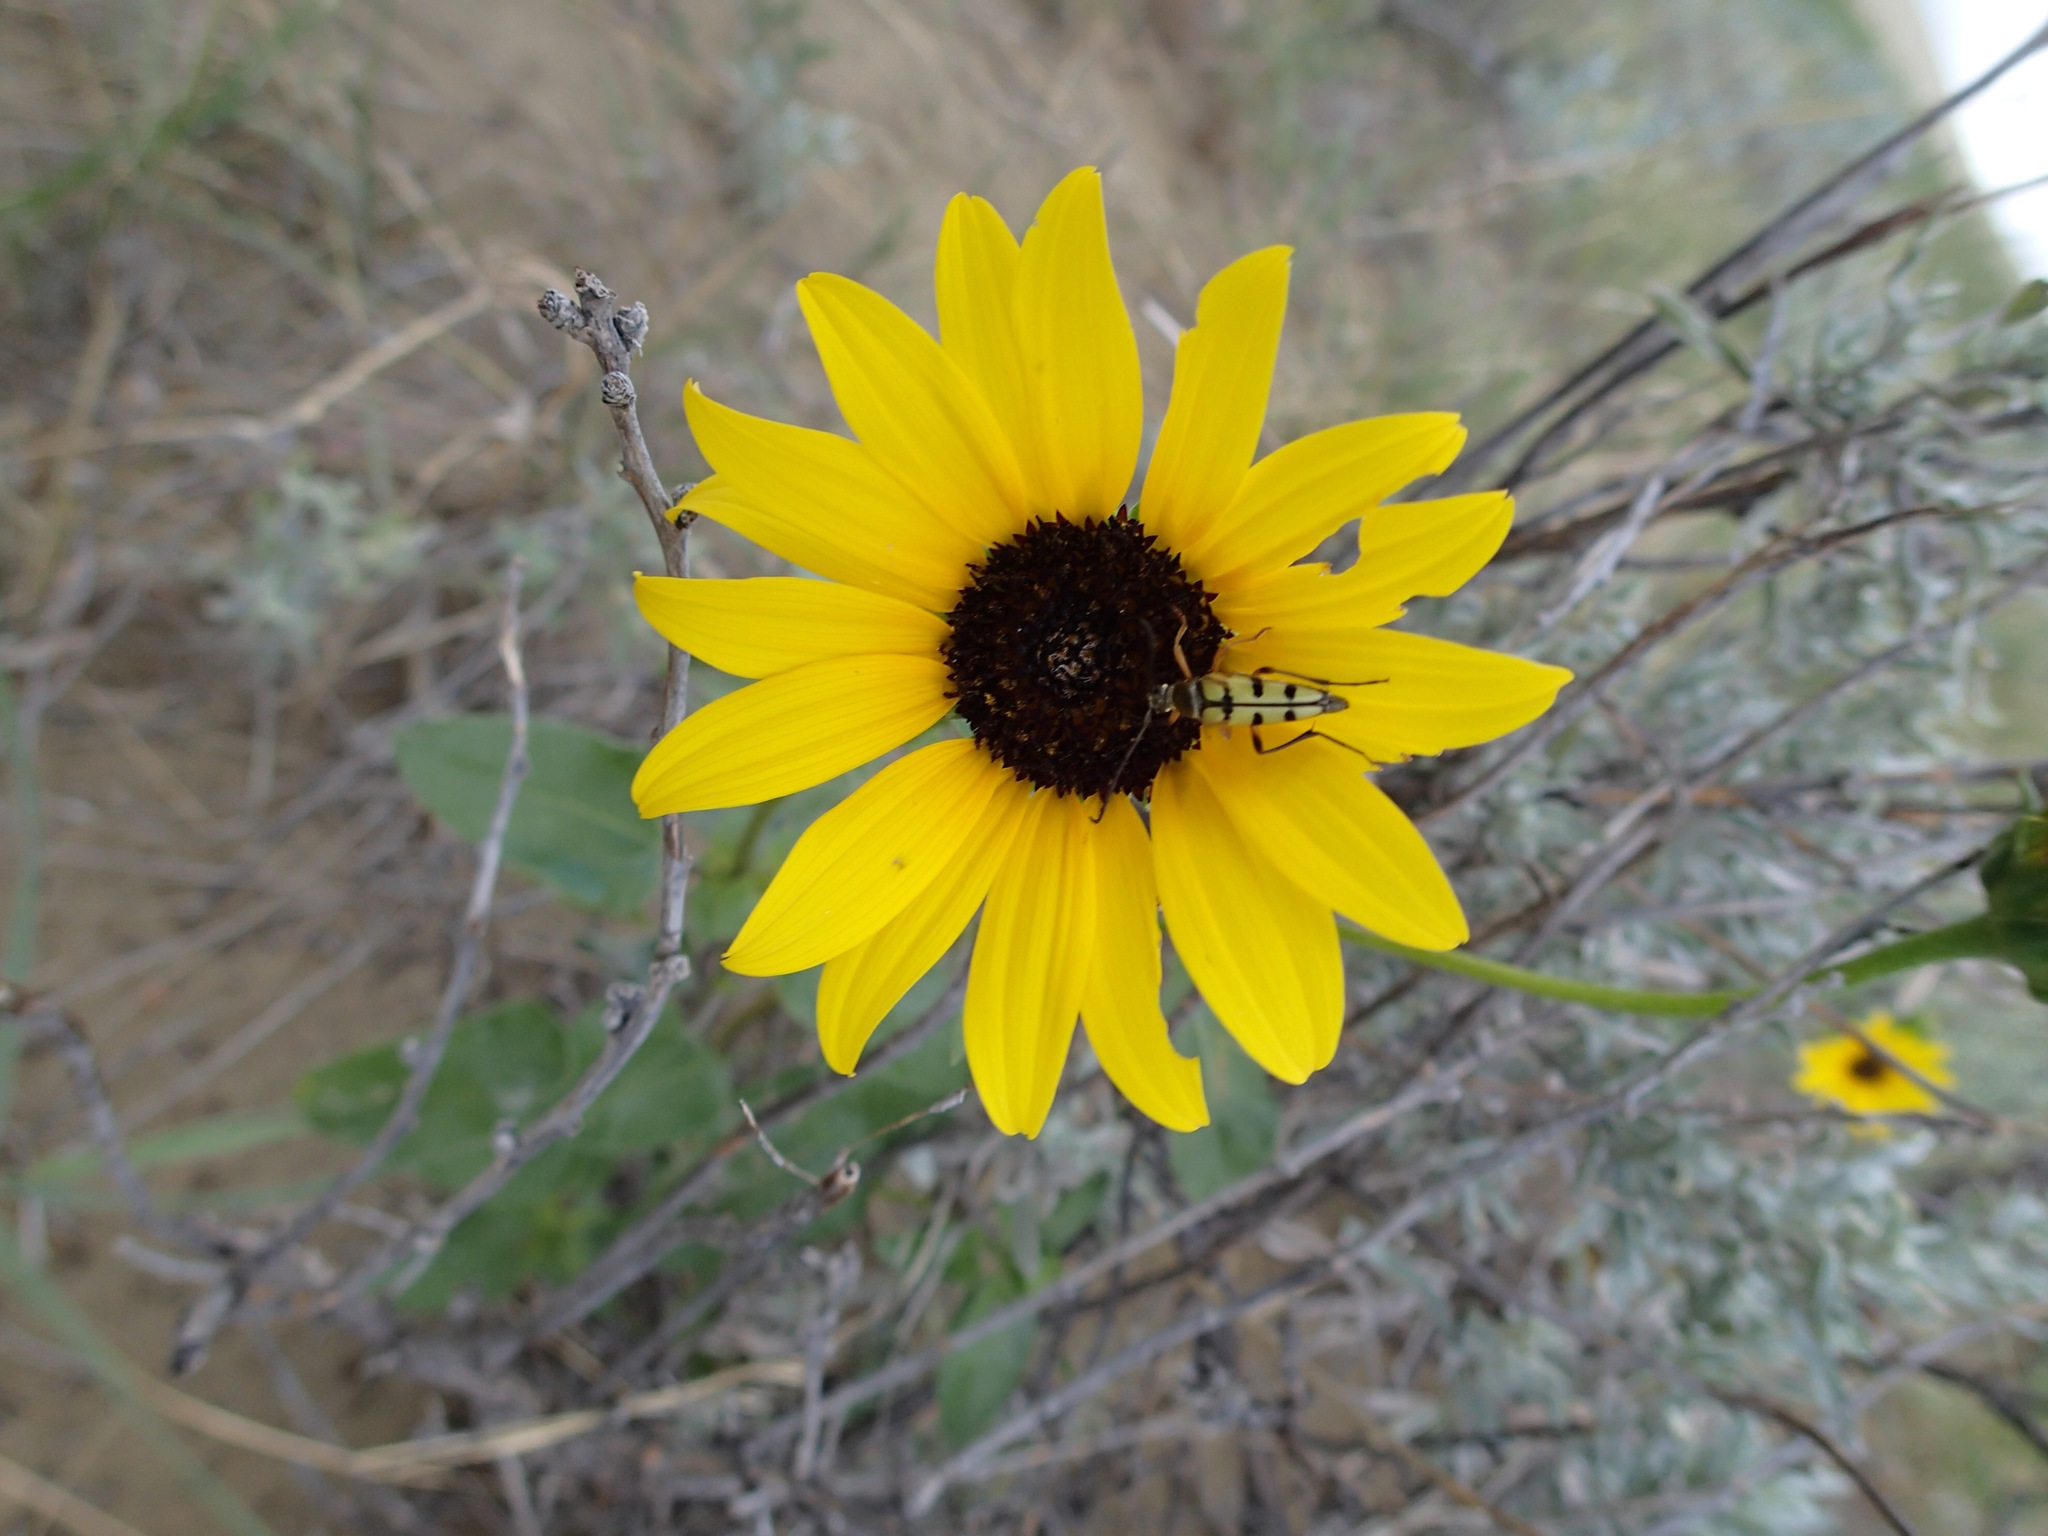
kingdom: Animalia
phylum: Arthropoda
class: Insecta
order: Coleoptera
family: Cerambycidae
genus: Typocerus
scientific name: Typocerus balteatus
